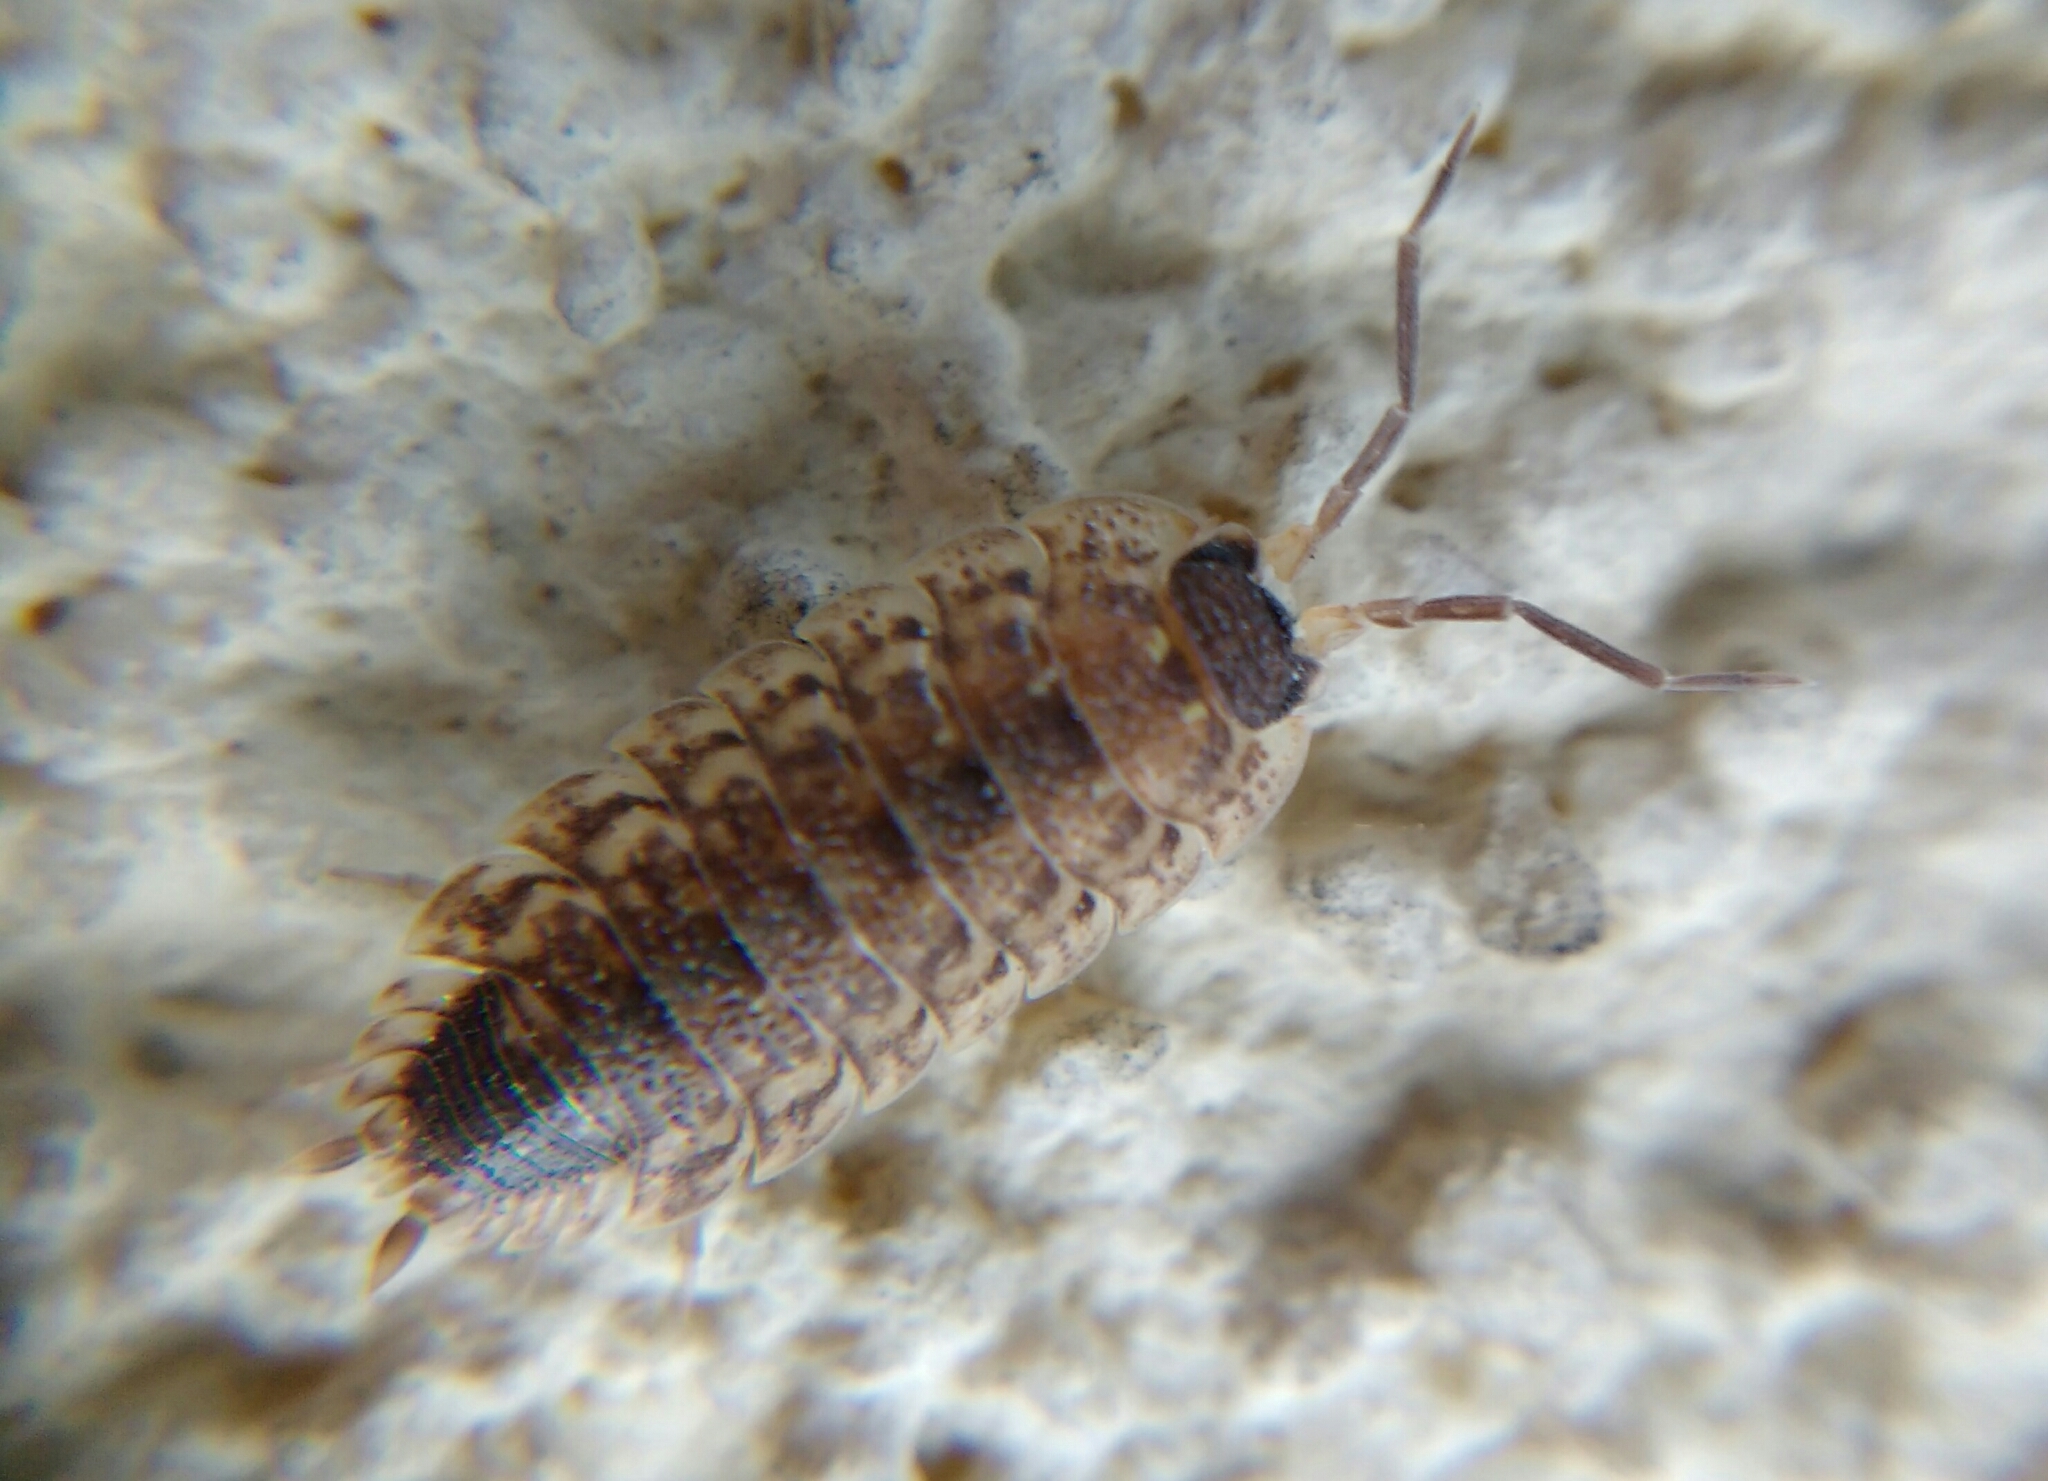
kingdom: Animalia
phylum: Arthropoda
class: Malacostraca
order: Isopoda
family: Porcellionidae
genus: Porcellio
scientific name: Porcellio spinicornis
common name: Painted woodlouse
